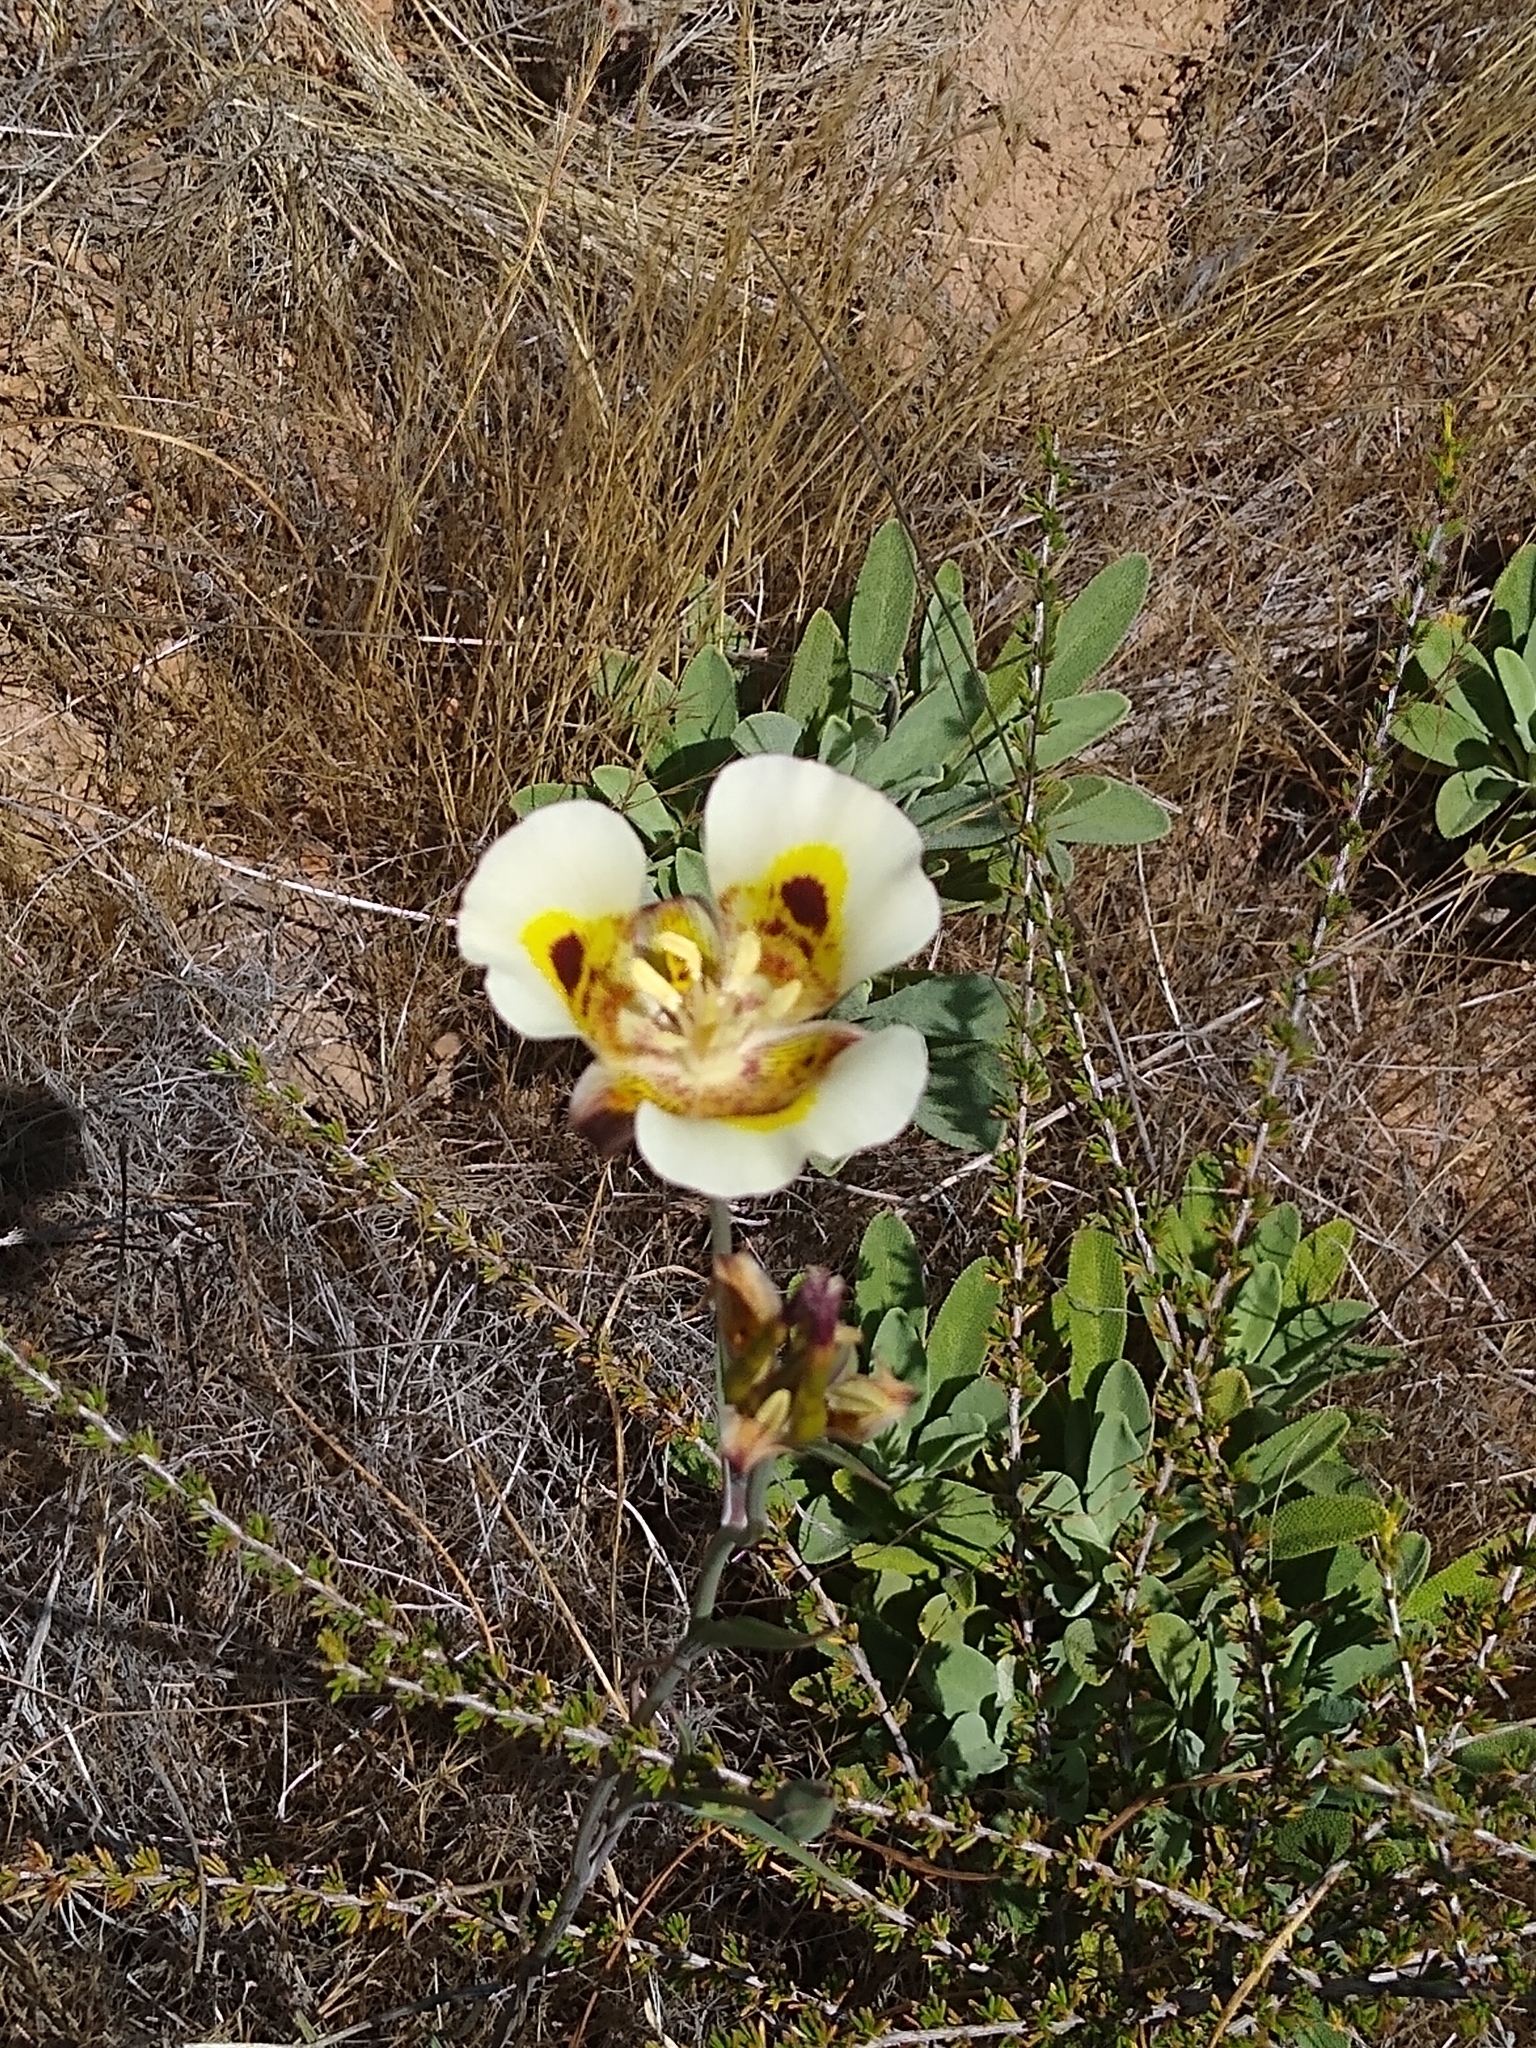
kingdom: Plantae
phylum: Tracheophyta
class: Liliopsida
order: Liliales
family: Liliaceae
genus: Calochortus
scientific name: Calochortus superbus
